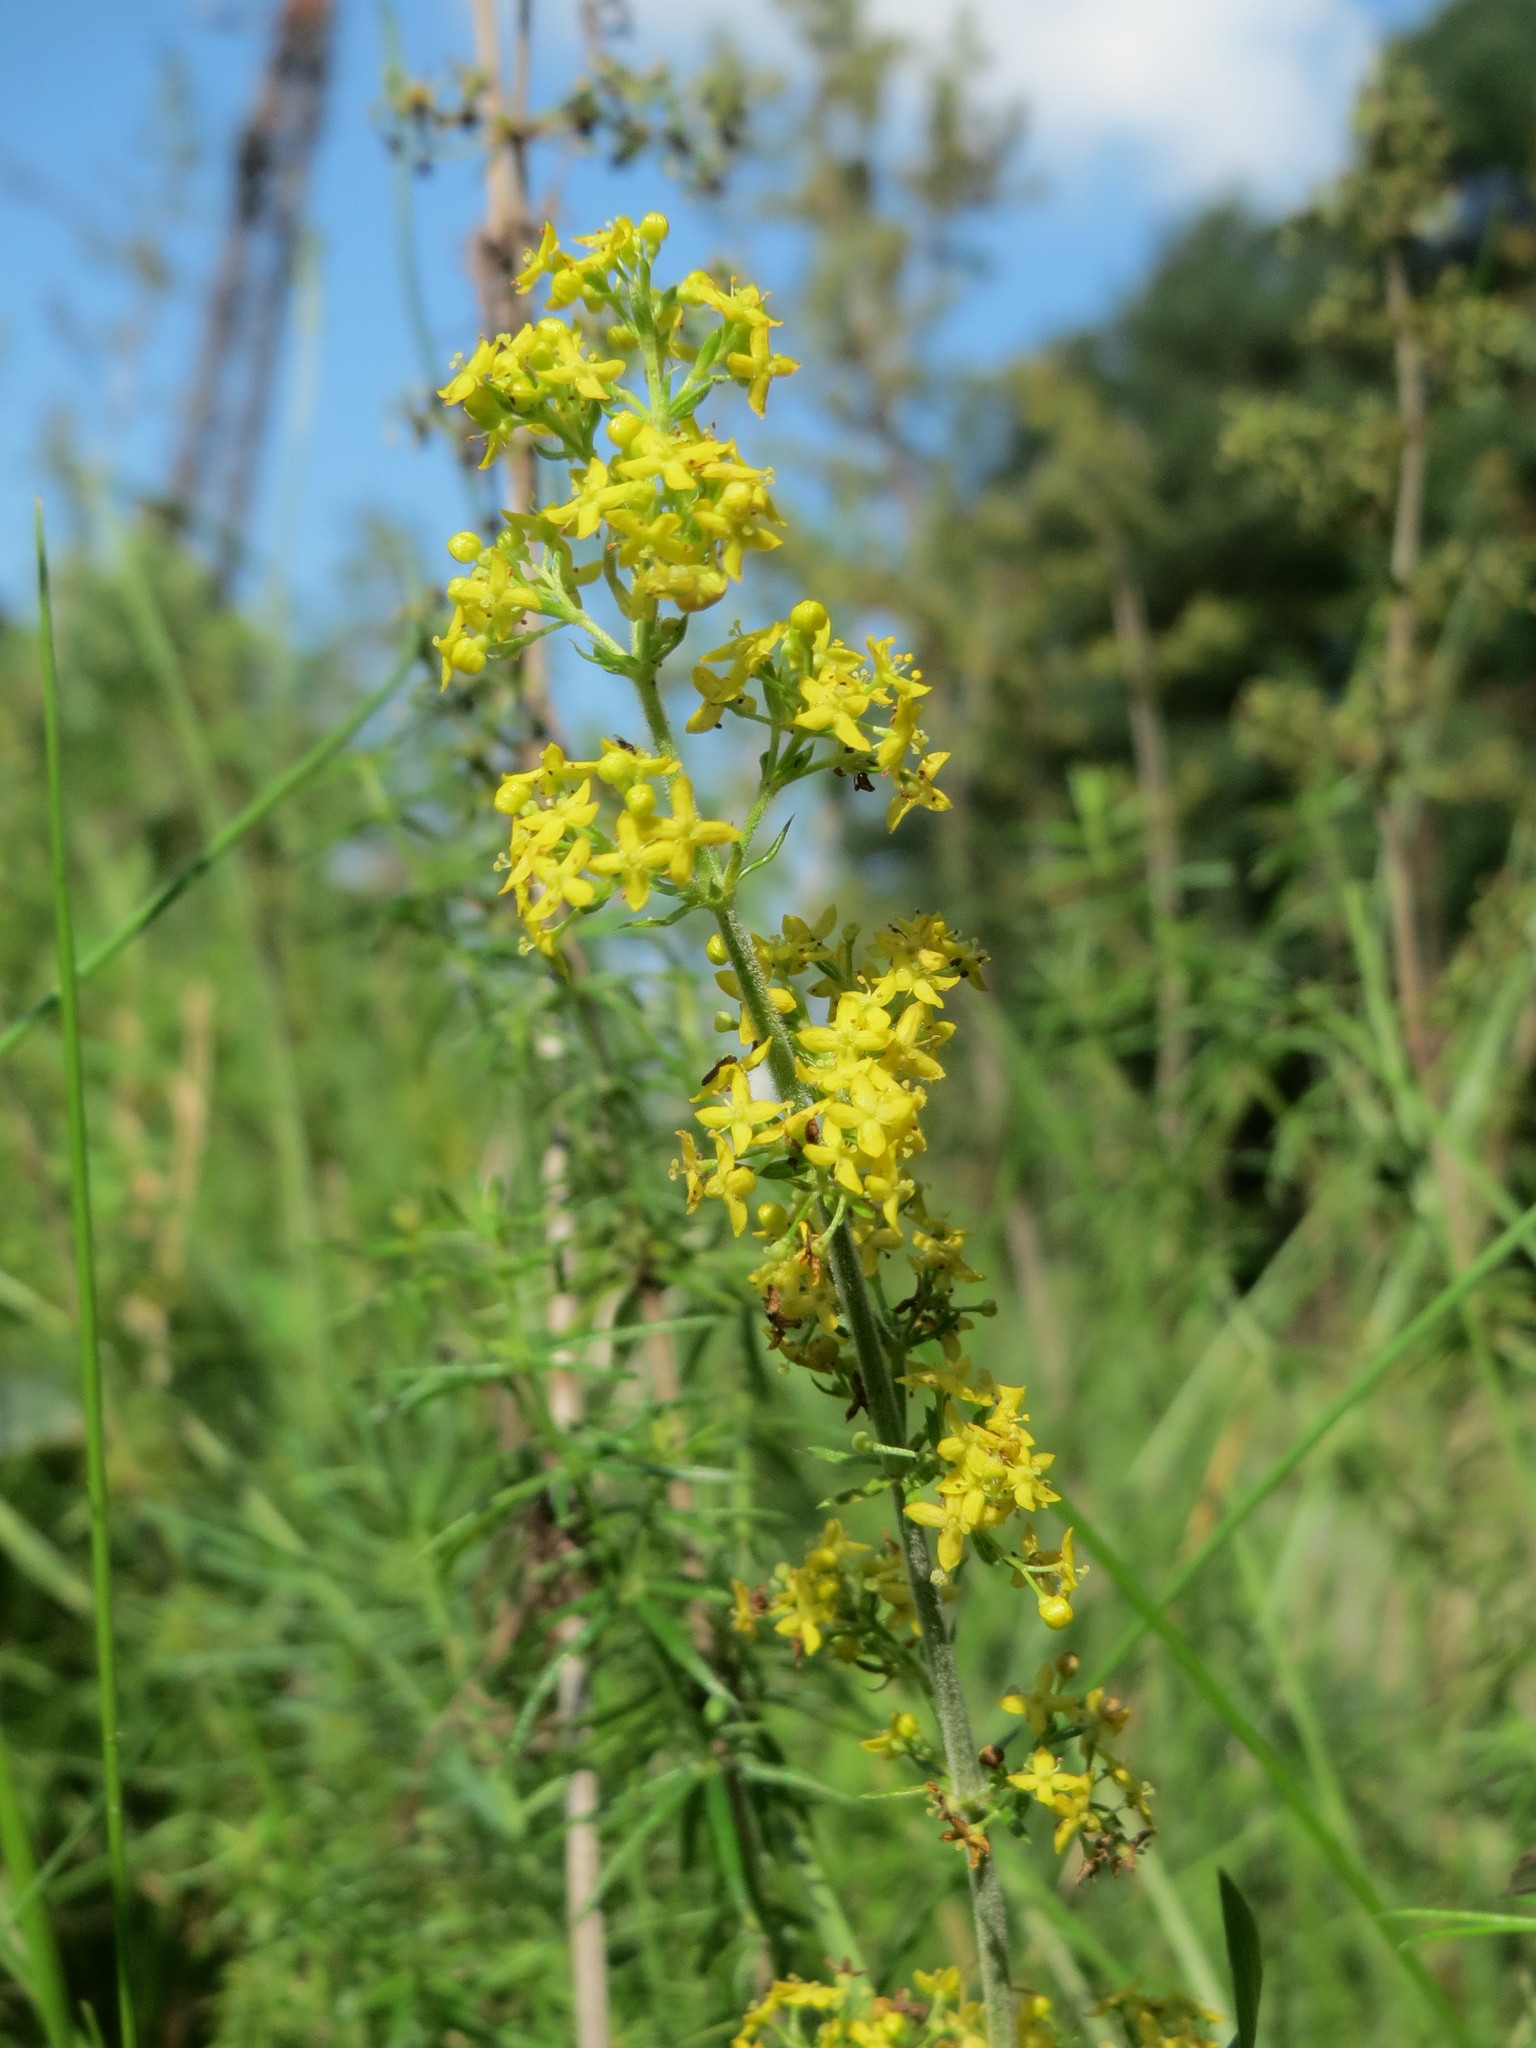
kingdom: Plantae
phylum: Tracheophyta
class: Magnoliopsida
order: Gentianales
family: Rubiaceae
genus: Galium
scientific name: Galium verum
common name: Lady's bedstraw
